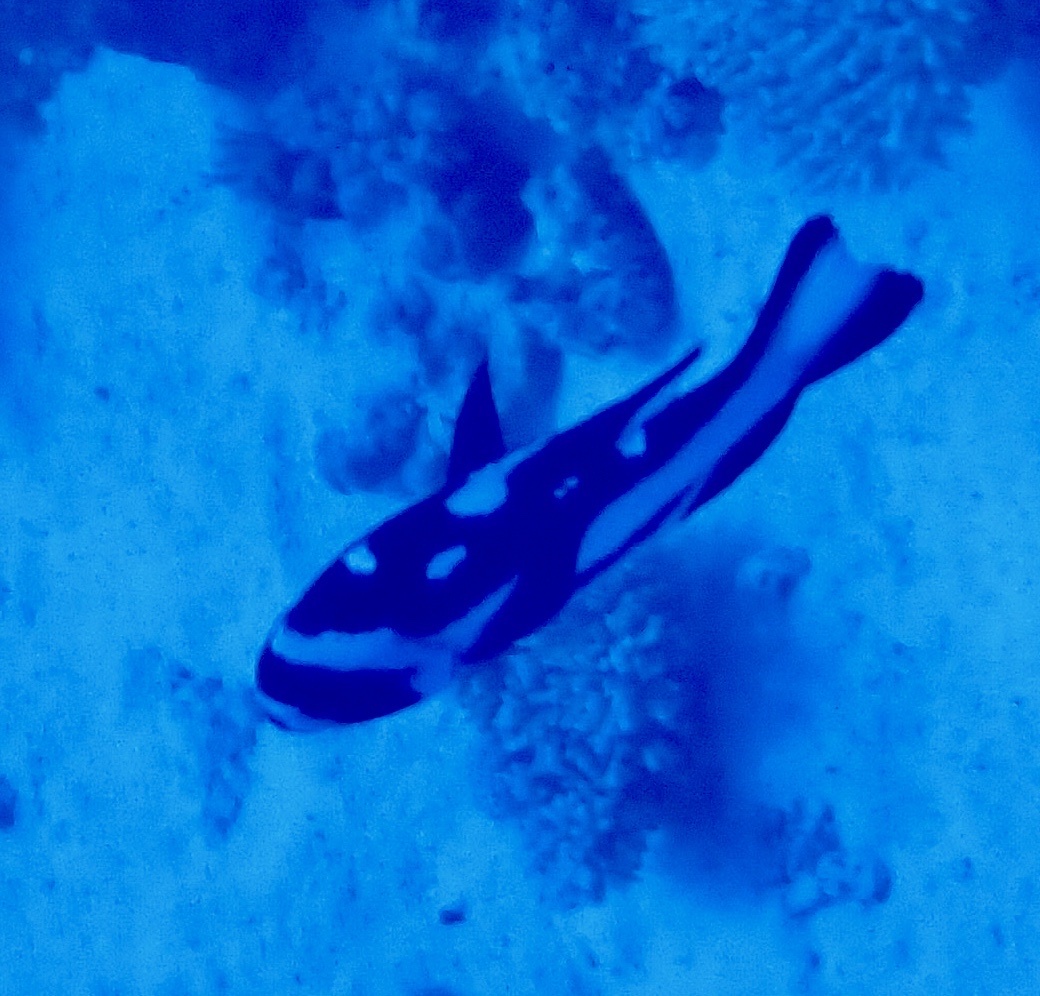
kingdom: Animalia
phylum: Chordata
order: Perciformes
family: Lutjanidae
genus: Macolor
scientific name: Macolor niger
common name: Black snapper
